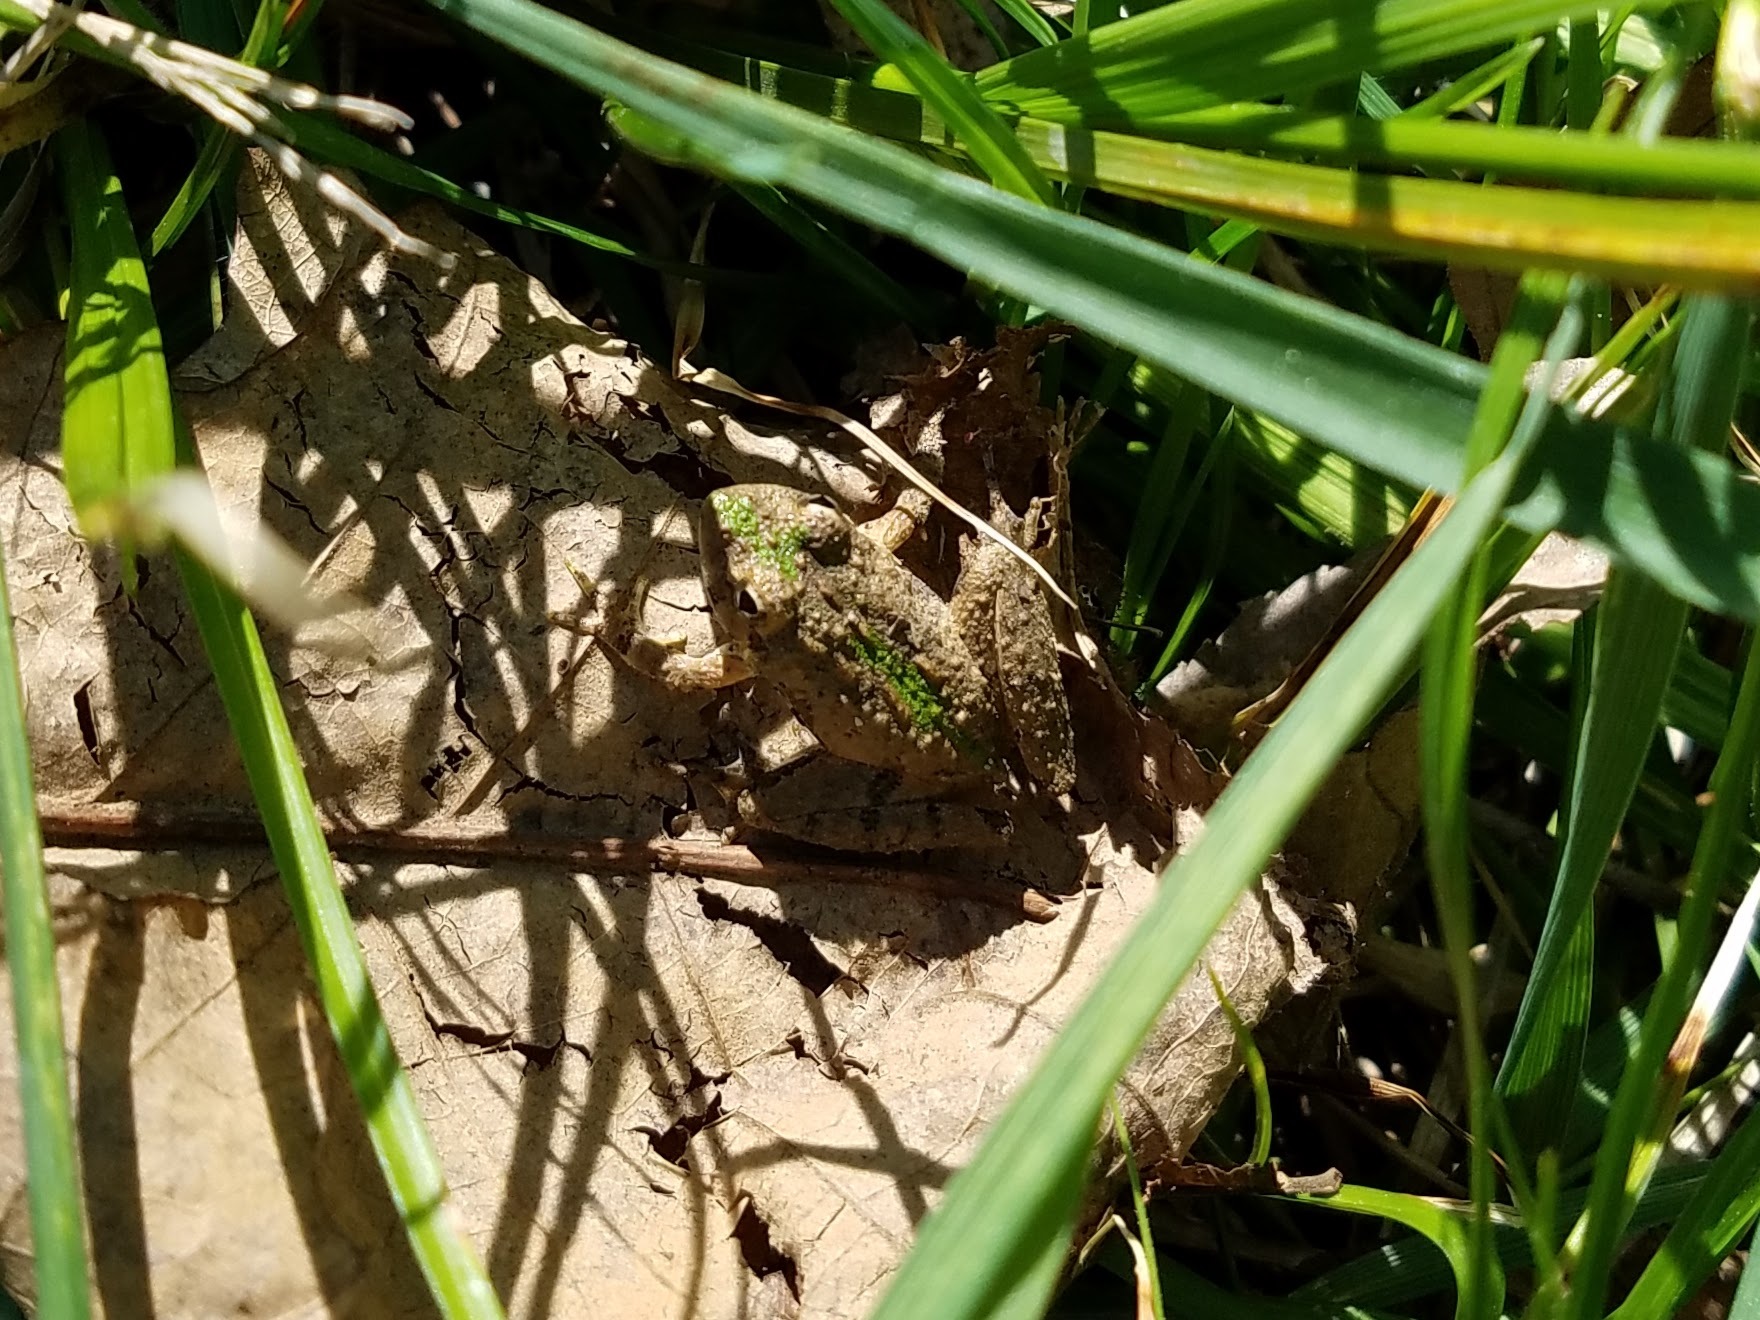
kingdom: Animalia
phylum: Chordata
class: Amphibia
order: Anura
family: Hylidae
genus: Acris
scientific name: Acris crepitans
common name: Northern cricket frog
